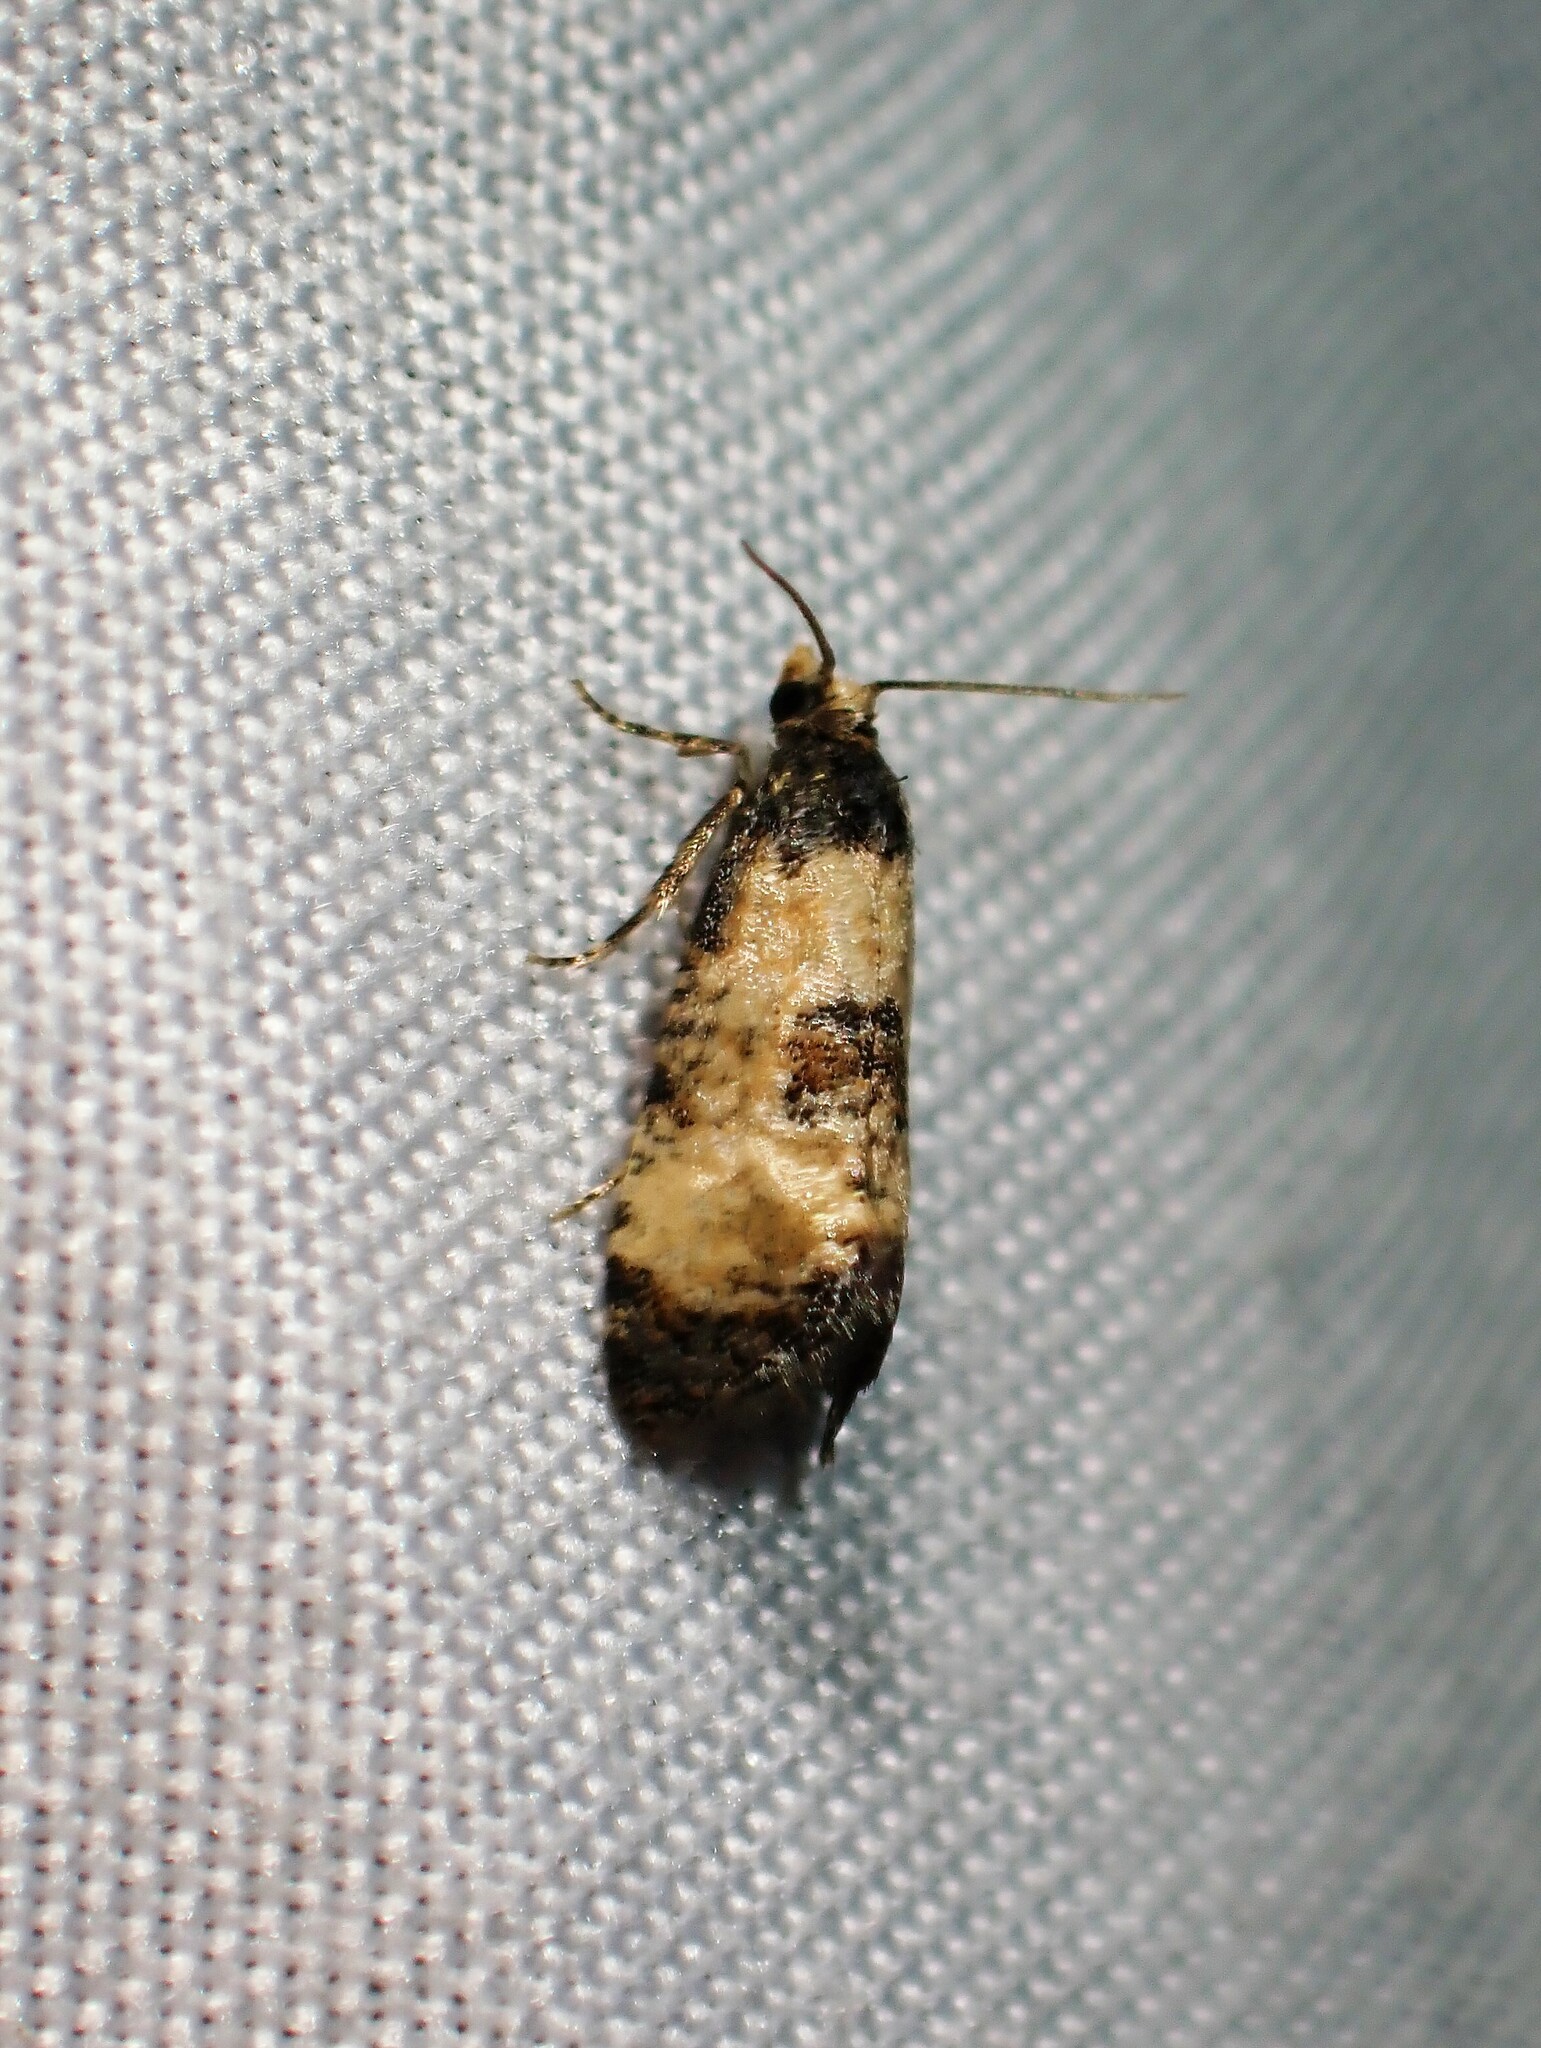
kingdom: Animalia
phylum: Arthropoda
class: Insecta
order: Lepidoptera
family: Tortricidae
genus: Cochylis
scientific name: Cochylis dubitana
